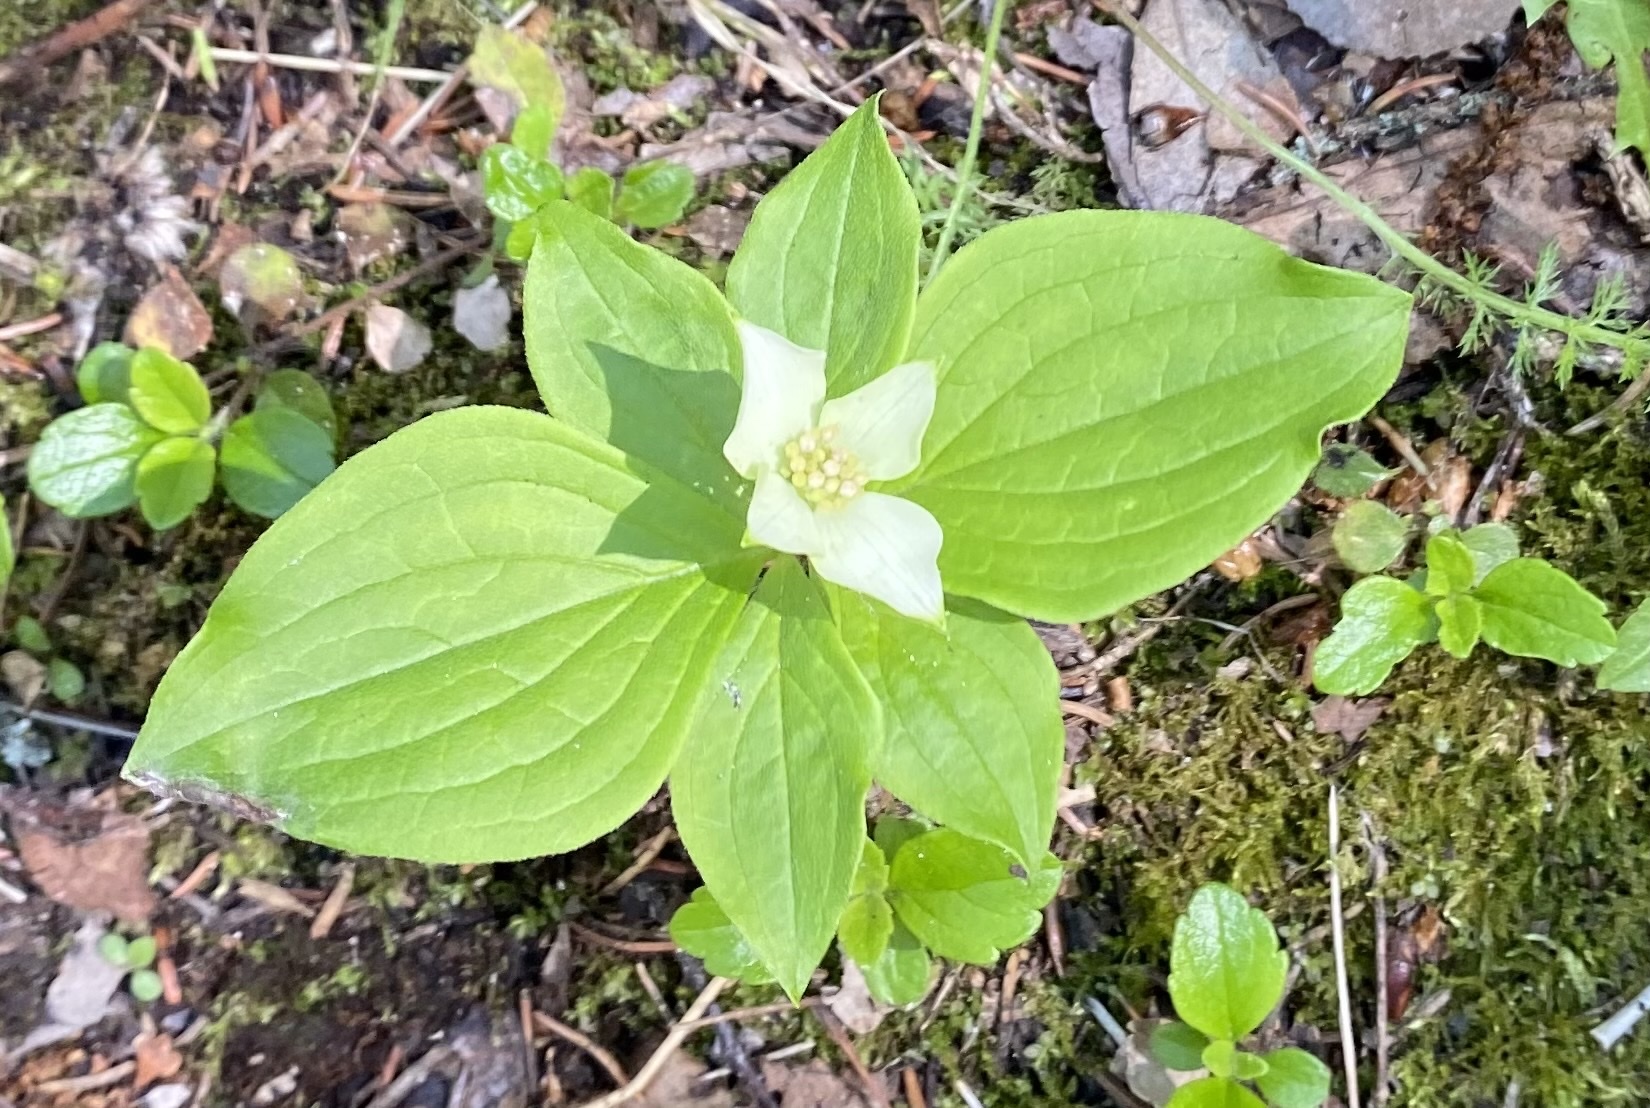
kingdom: Plantae
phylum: Tracheophyta
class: Magnoliopsida
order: Cornales
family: Cornaceae
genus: Cornus
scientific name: Cornus canadensis
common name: Creeping dogwood
